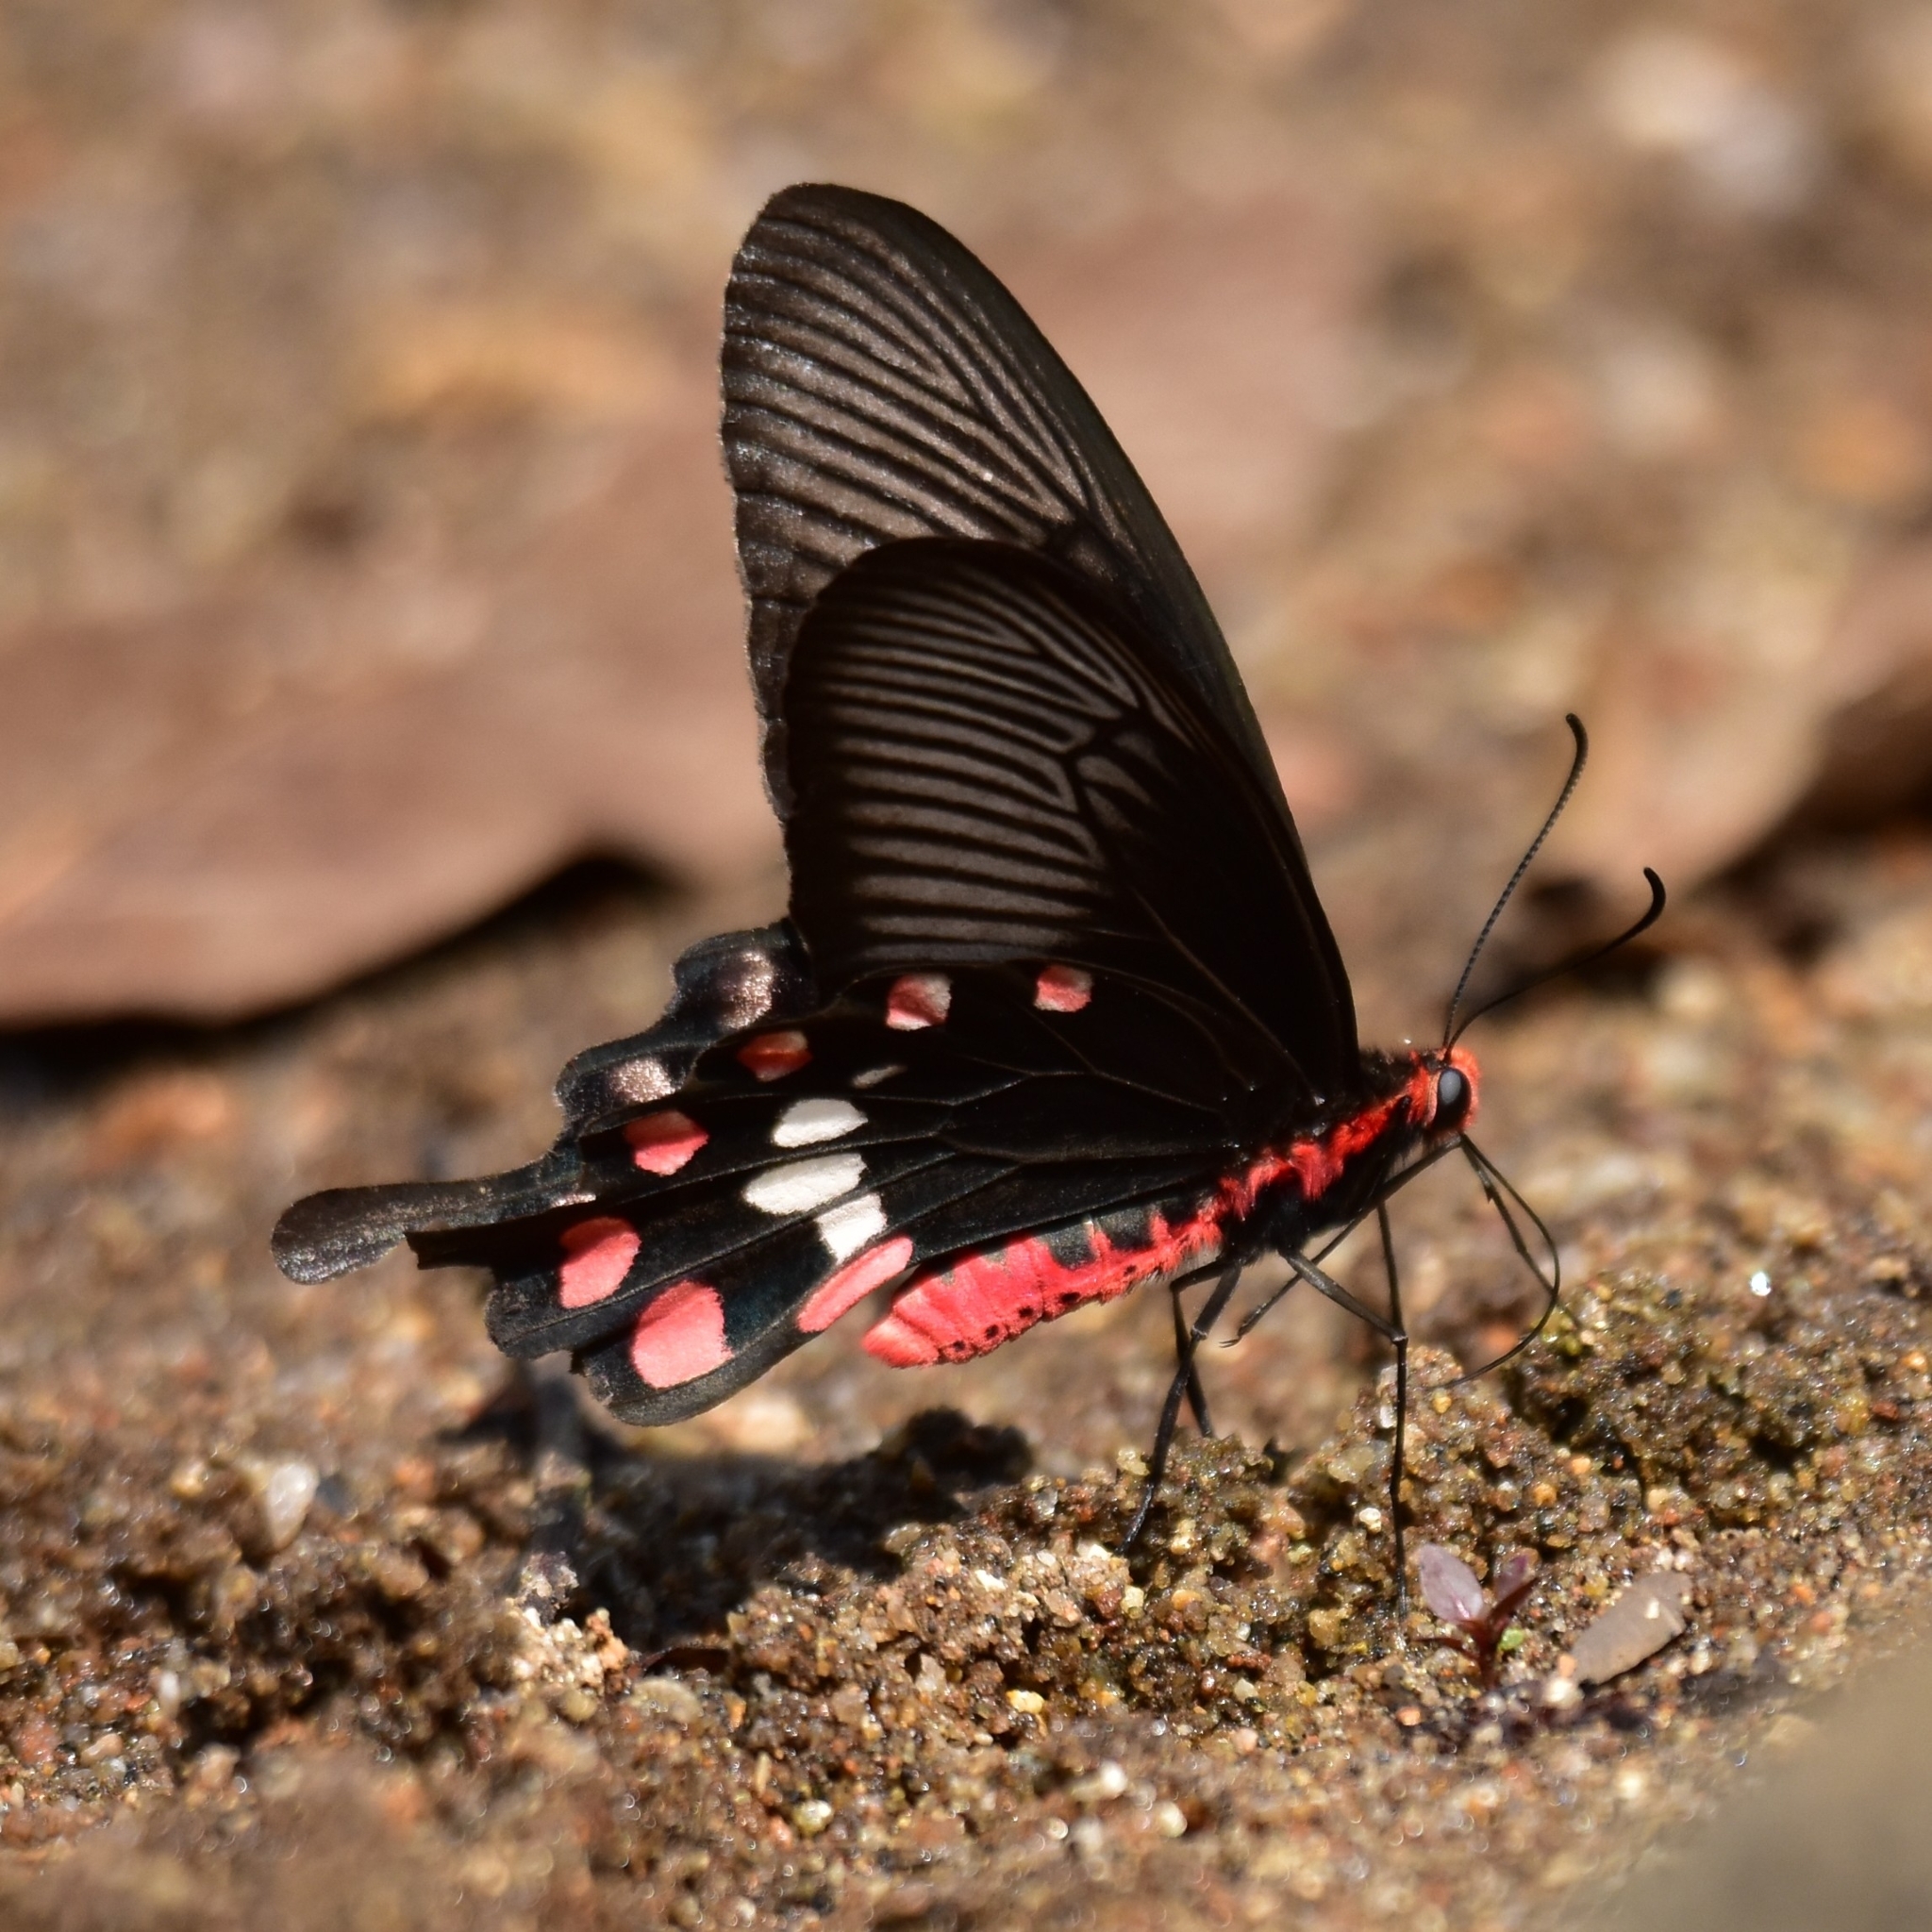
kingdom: Animalia
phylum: Arthropoda
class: Insecta
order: Lepidoptera
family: Papilionidae
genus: Pachliopta
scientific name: Pachliopta aristolochiae
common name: Common rose
